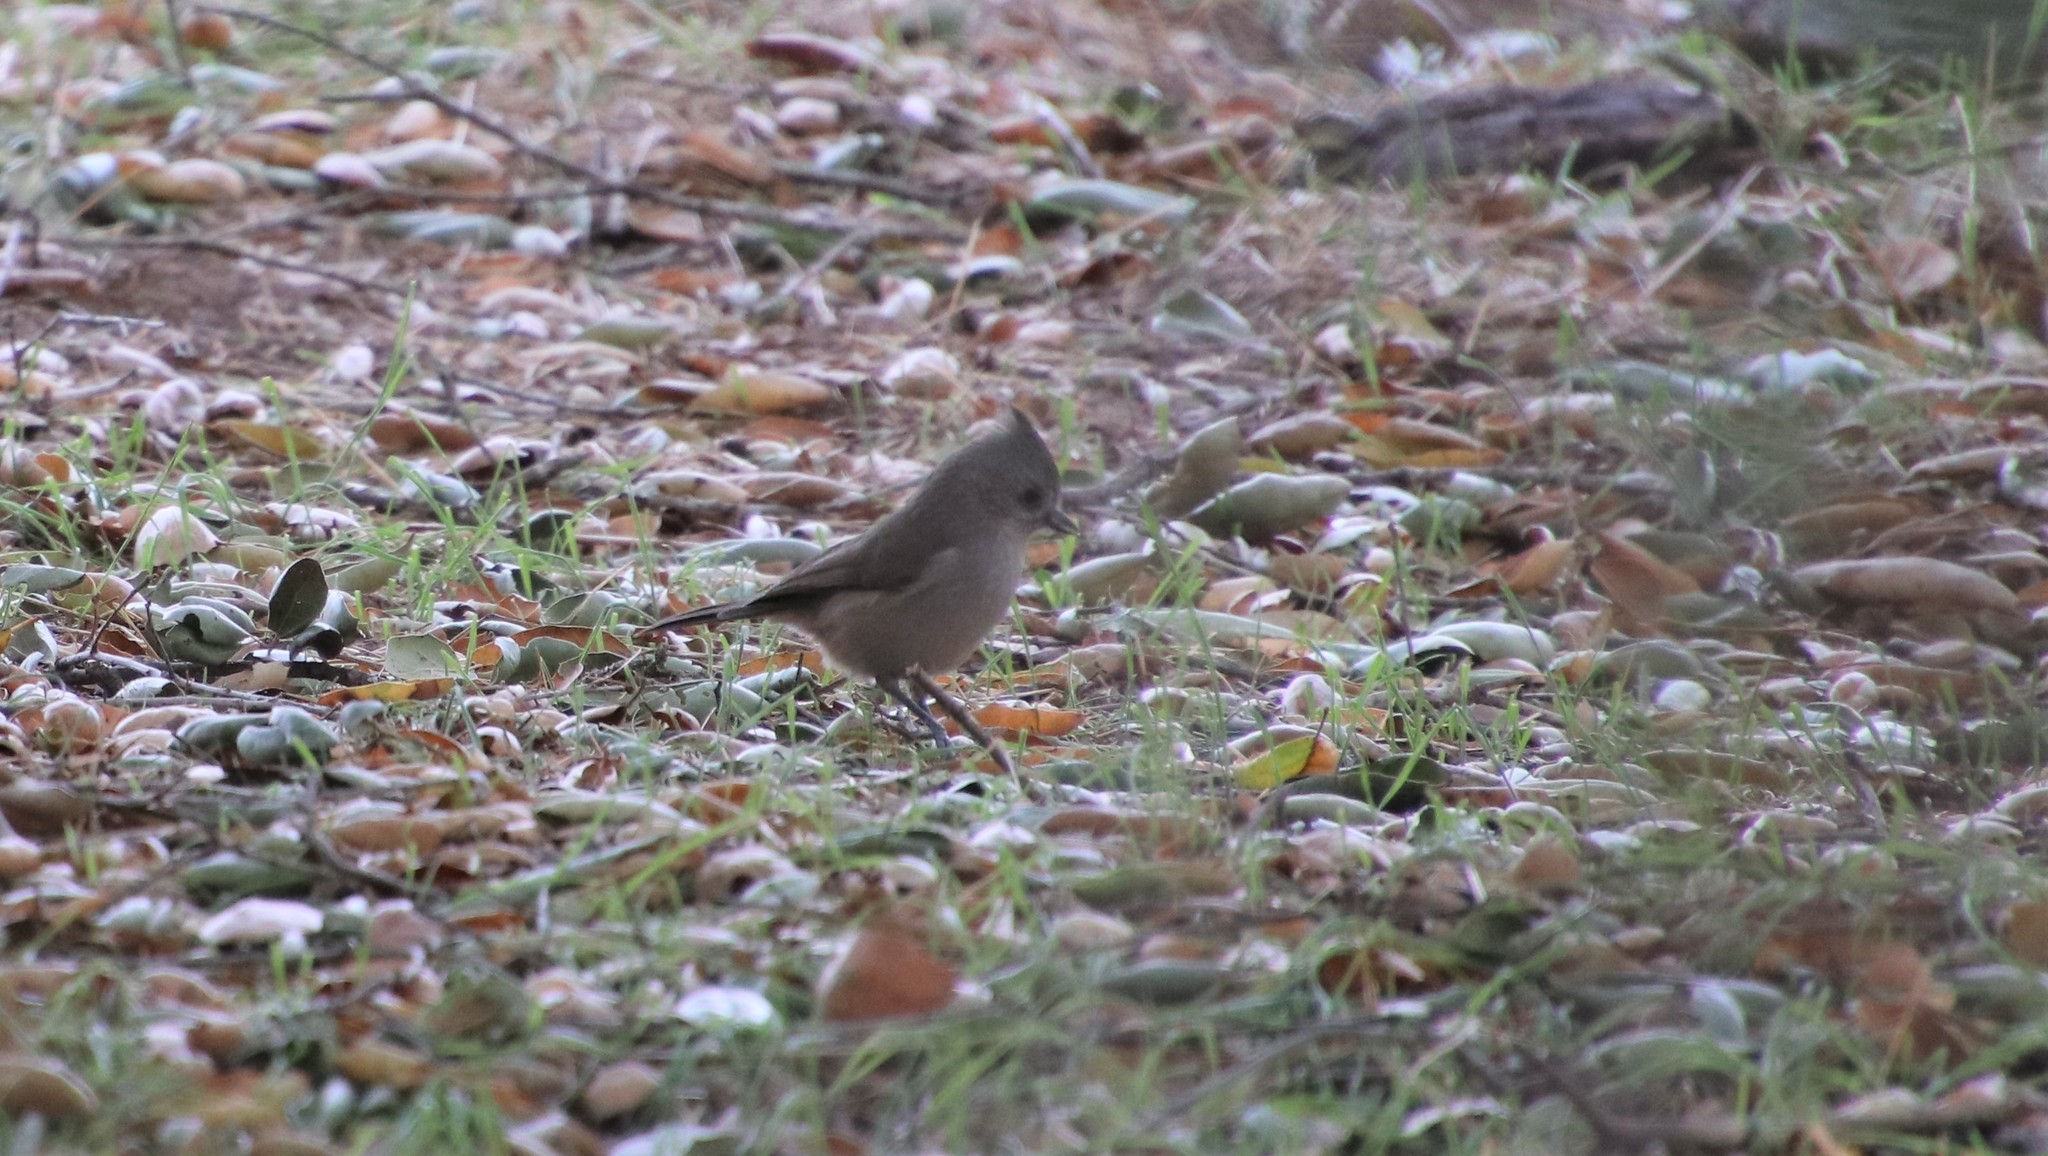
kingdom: Animalia
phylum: Chordata
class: Aves
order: Passeriformes
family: Paridae
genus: Baeolophus
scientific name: Baeolophus inornatus
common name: Oak titmouse
